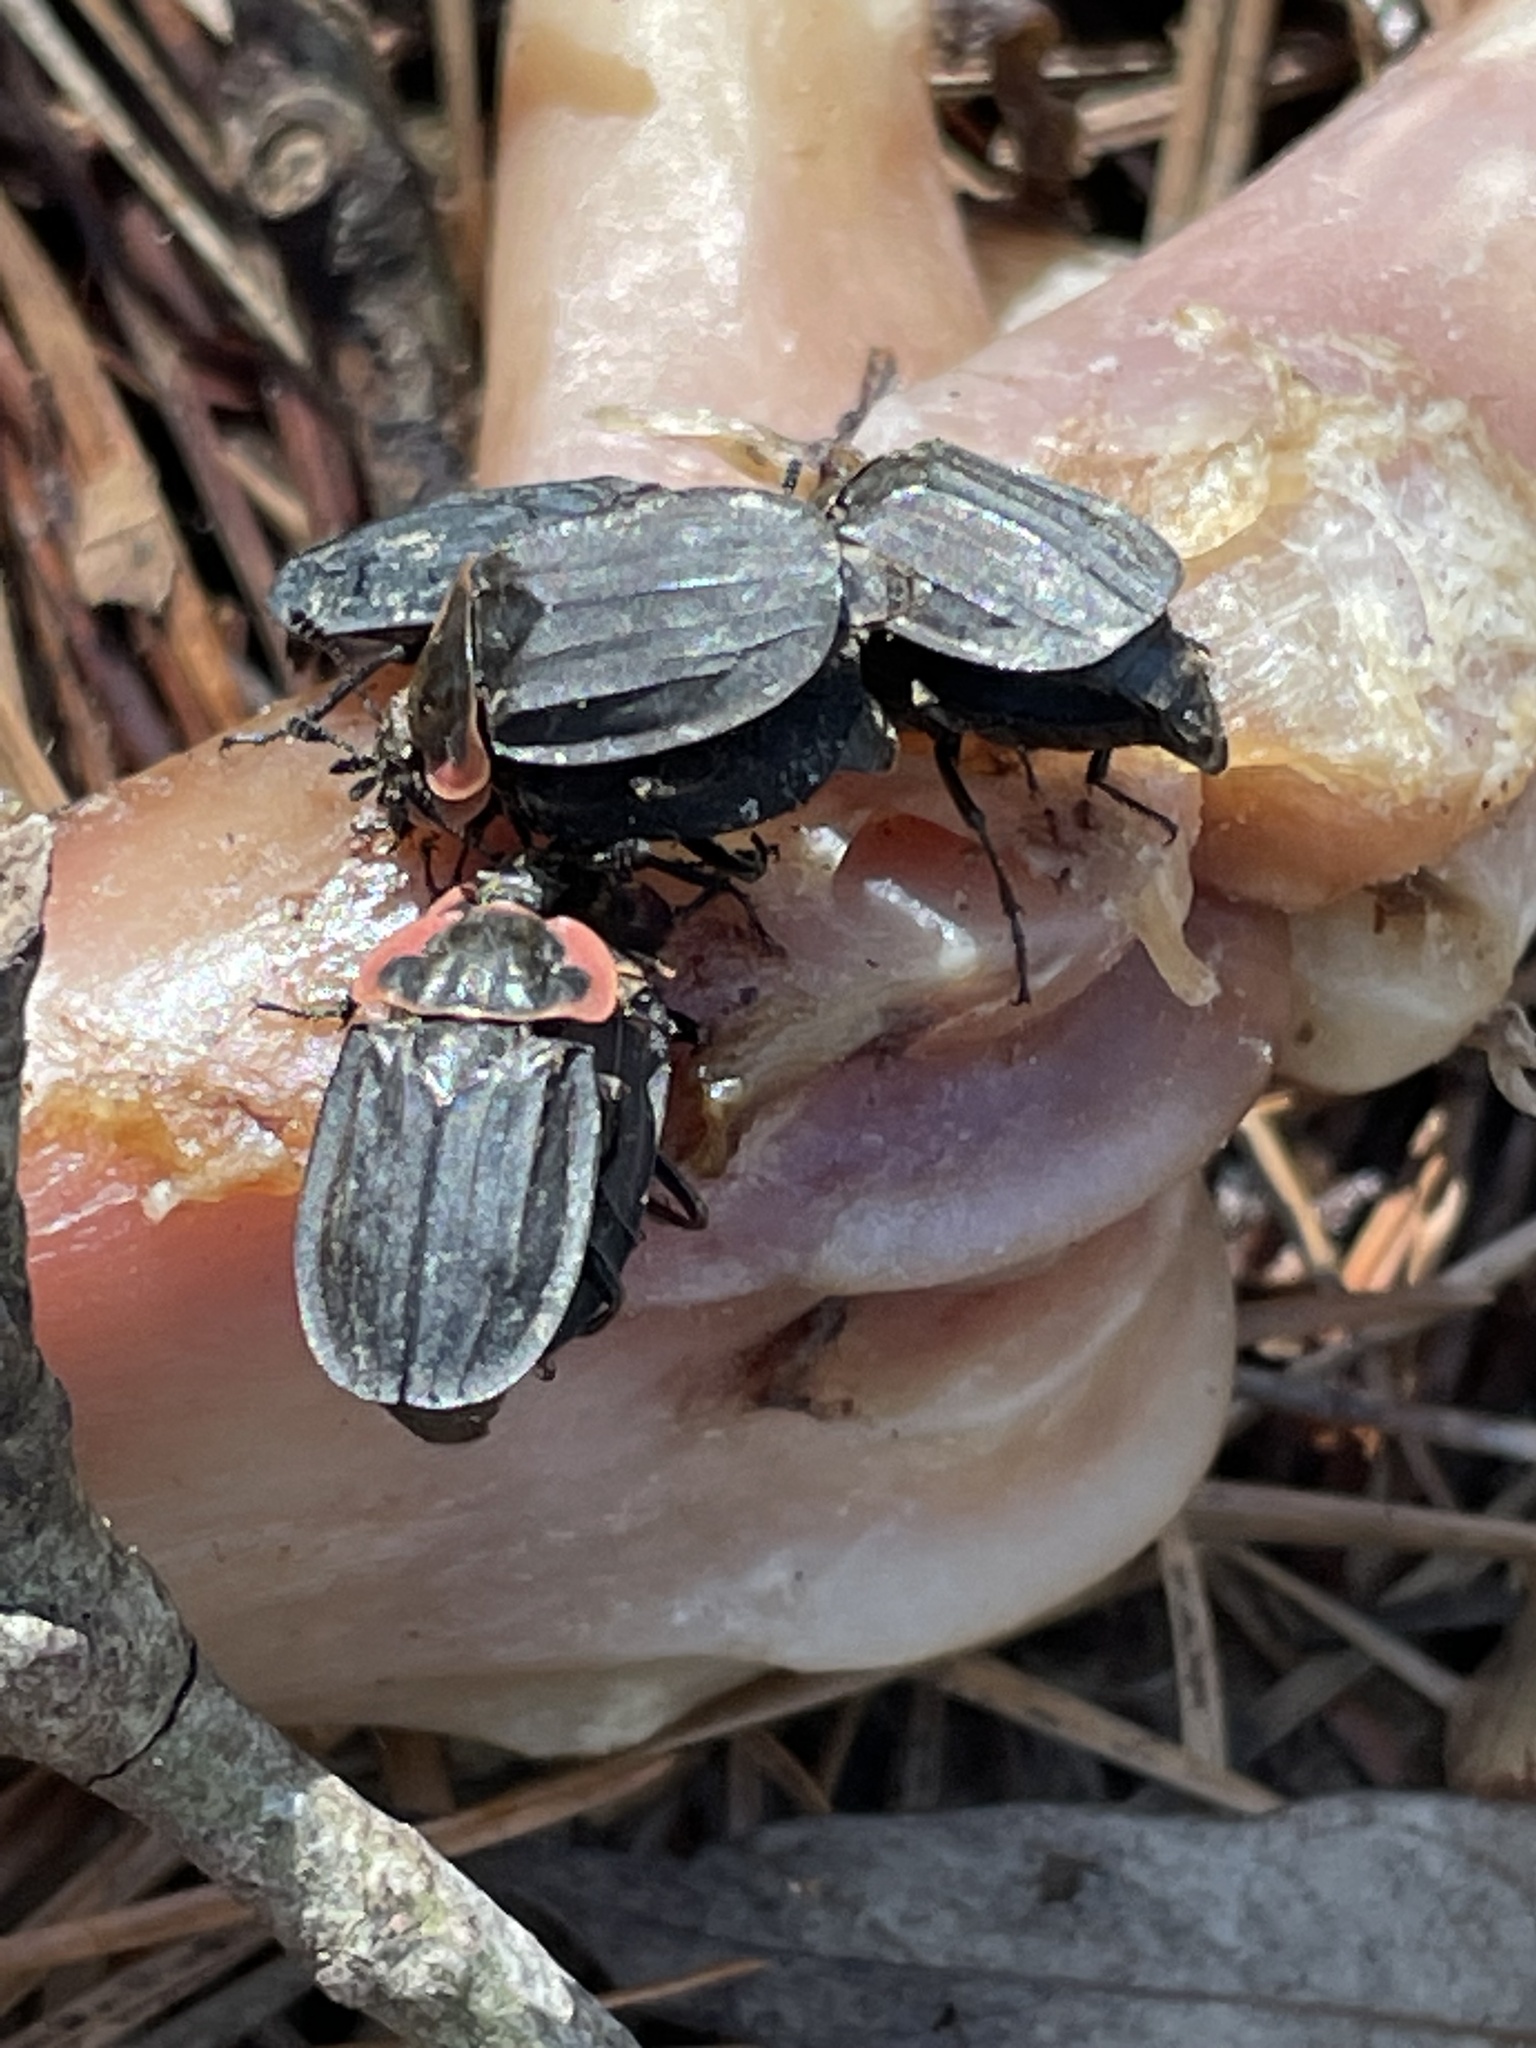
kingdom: Animalia
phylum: Arthropoda
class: Insecta
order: Coleoptera
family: Staphylinidae
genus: Oiceoptoma
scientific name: Oiceoptoma noveboracense
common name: Margined carrion beetle
